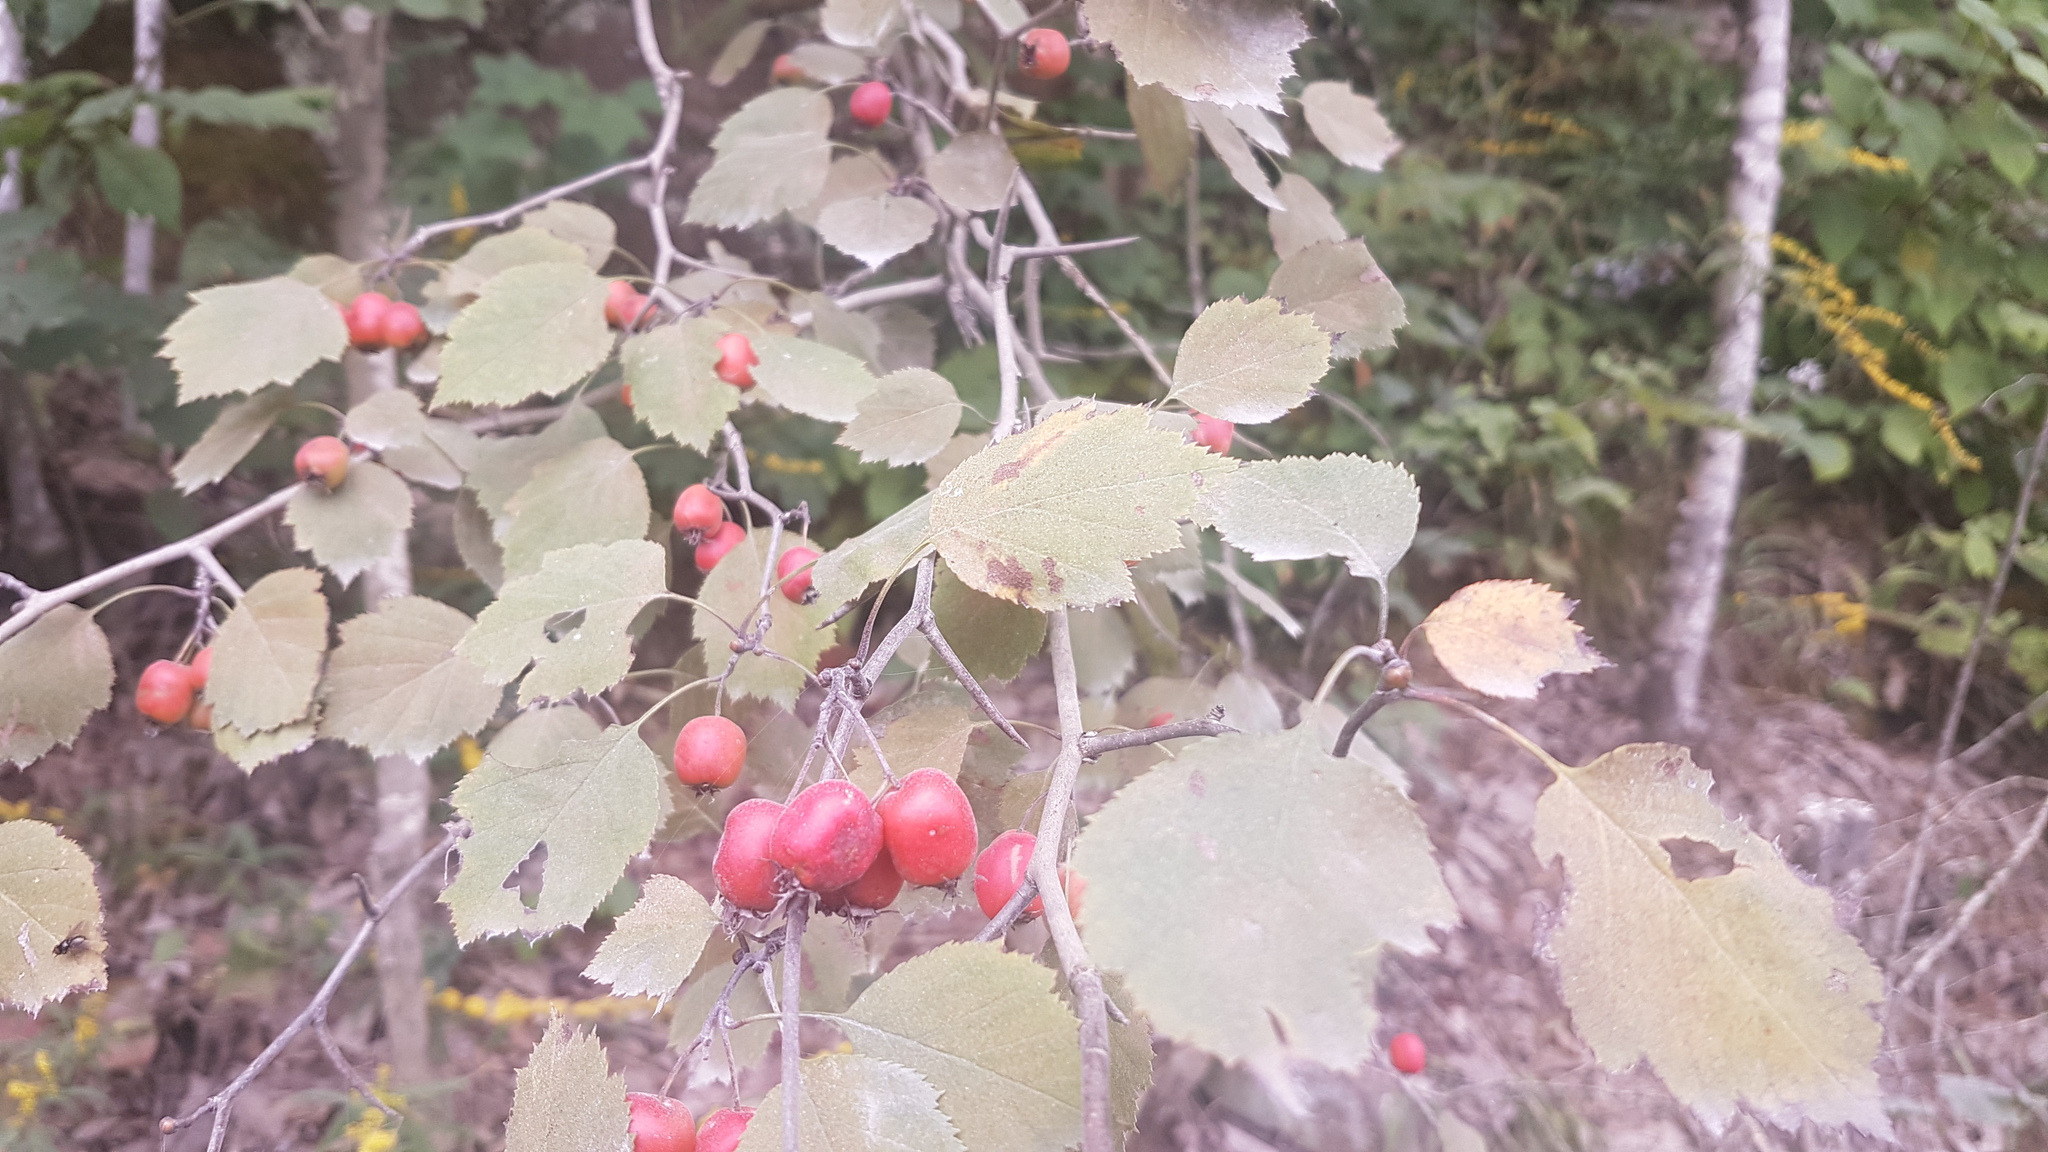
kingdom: Plantae
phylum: Tracheophyta
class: Magnoliopsida
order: Rosales
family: Rosaceae
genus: Crataegus
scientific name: Crataegus
